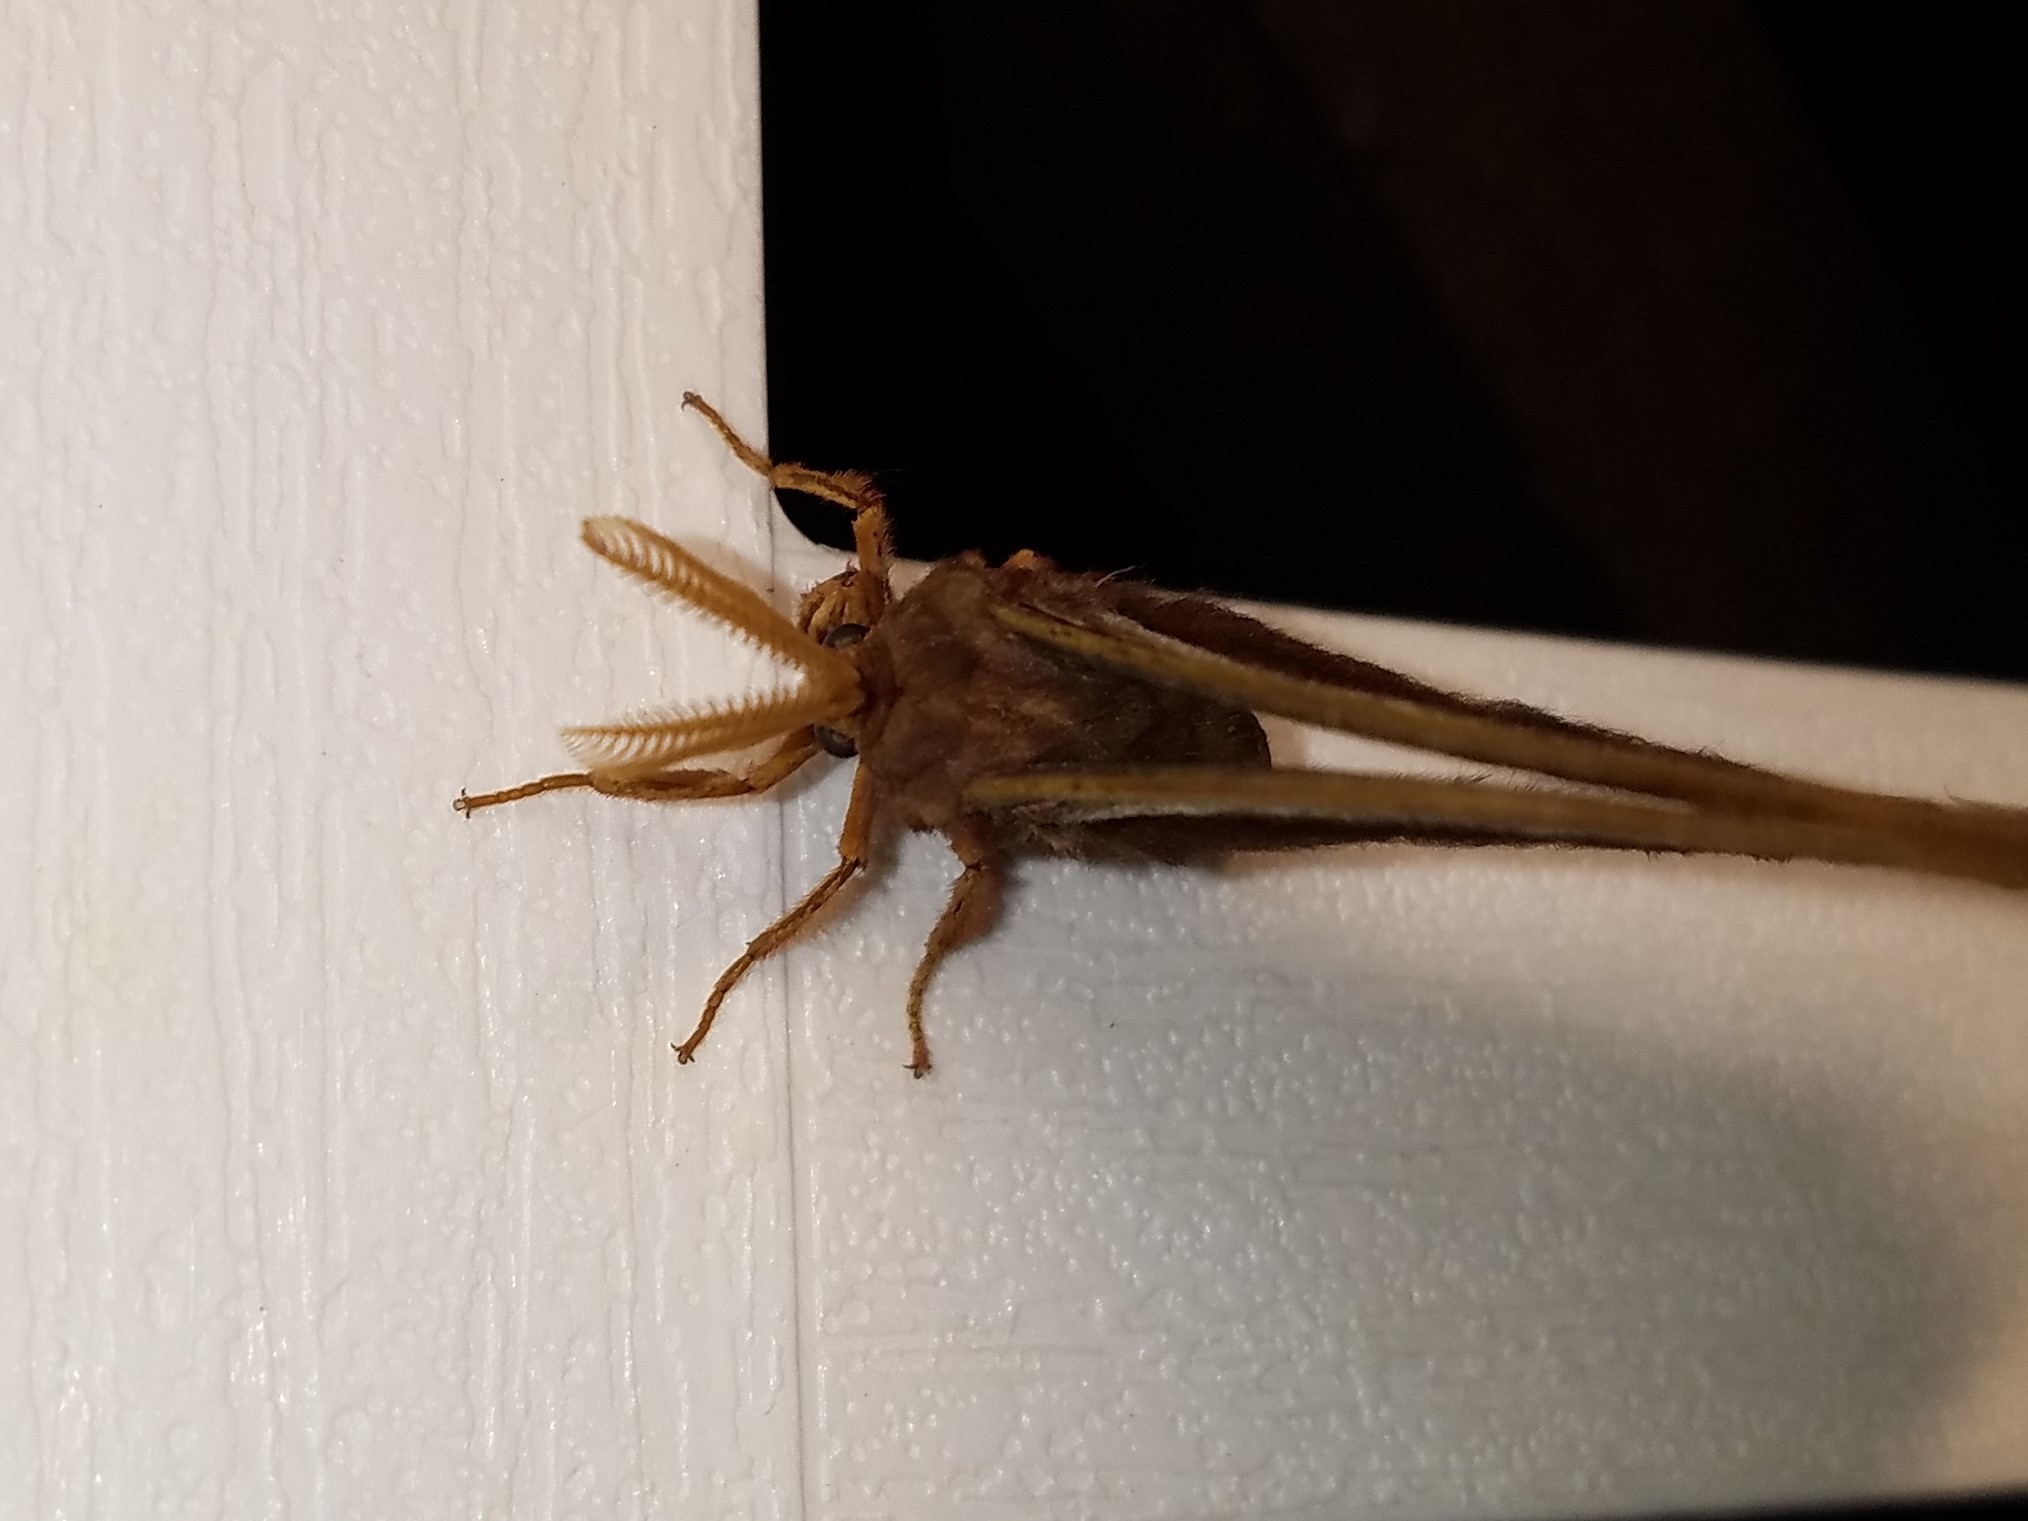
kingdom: Animalia
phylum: Arthropoda
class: Insecta
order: Lepidoptera
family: Saturniidae
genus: Callosamia
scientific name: Callosamia angulifera
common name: Tulip tree silkmoth
